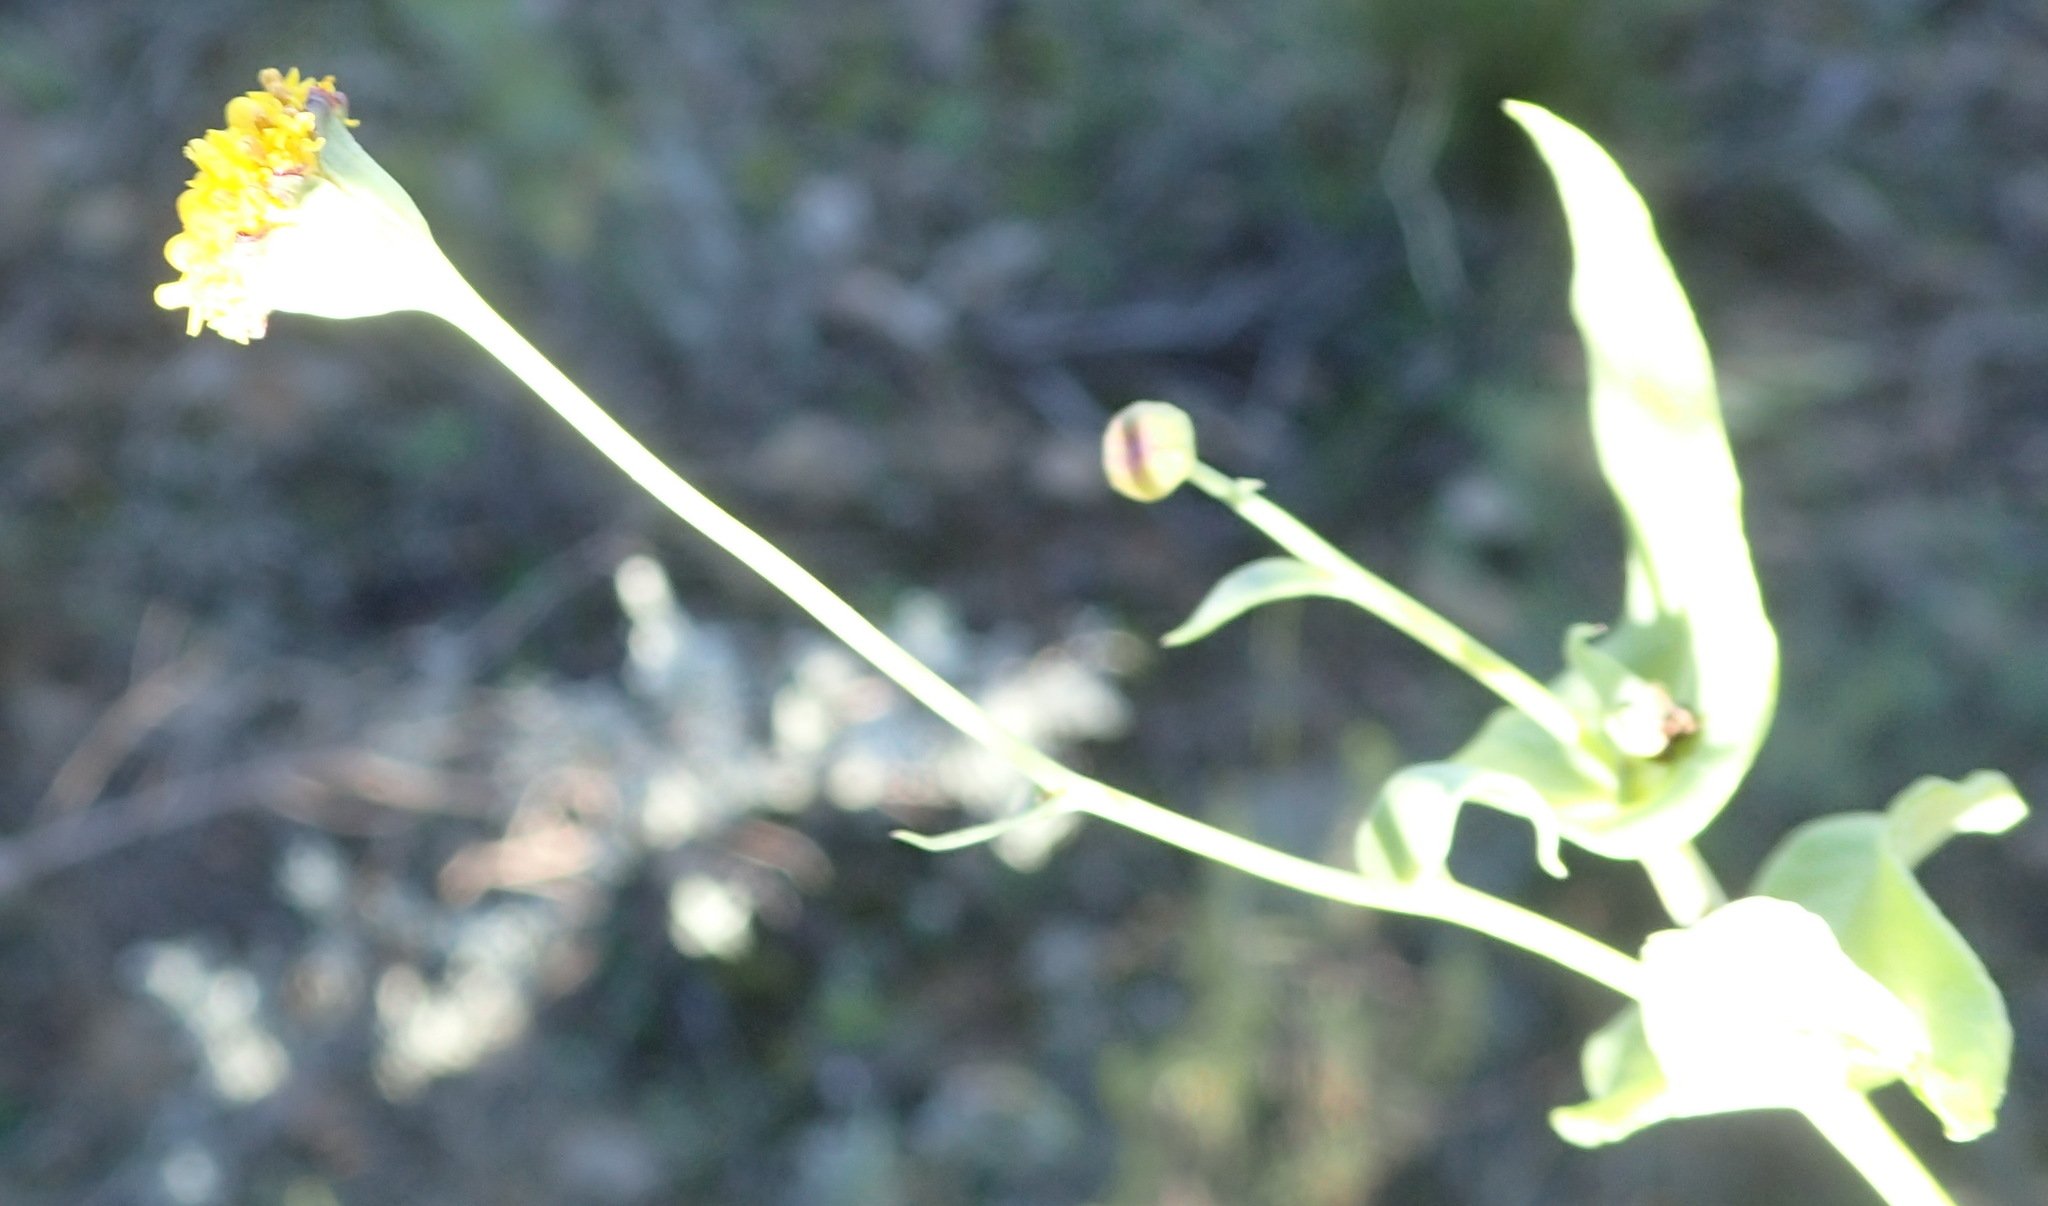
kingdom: Plantae
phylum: Tracheophyta
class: Magnoliopsida
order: Asterales
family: Asteraceae
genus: Othonna
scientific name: Othonna undulosa
